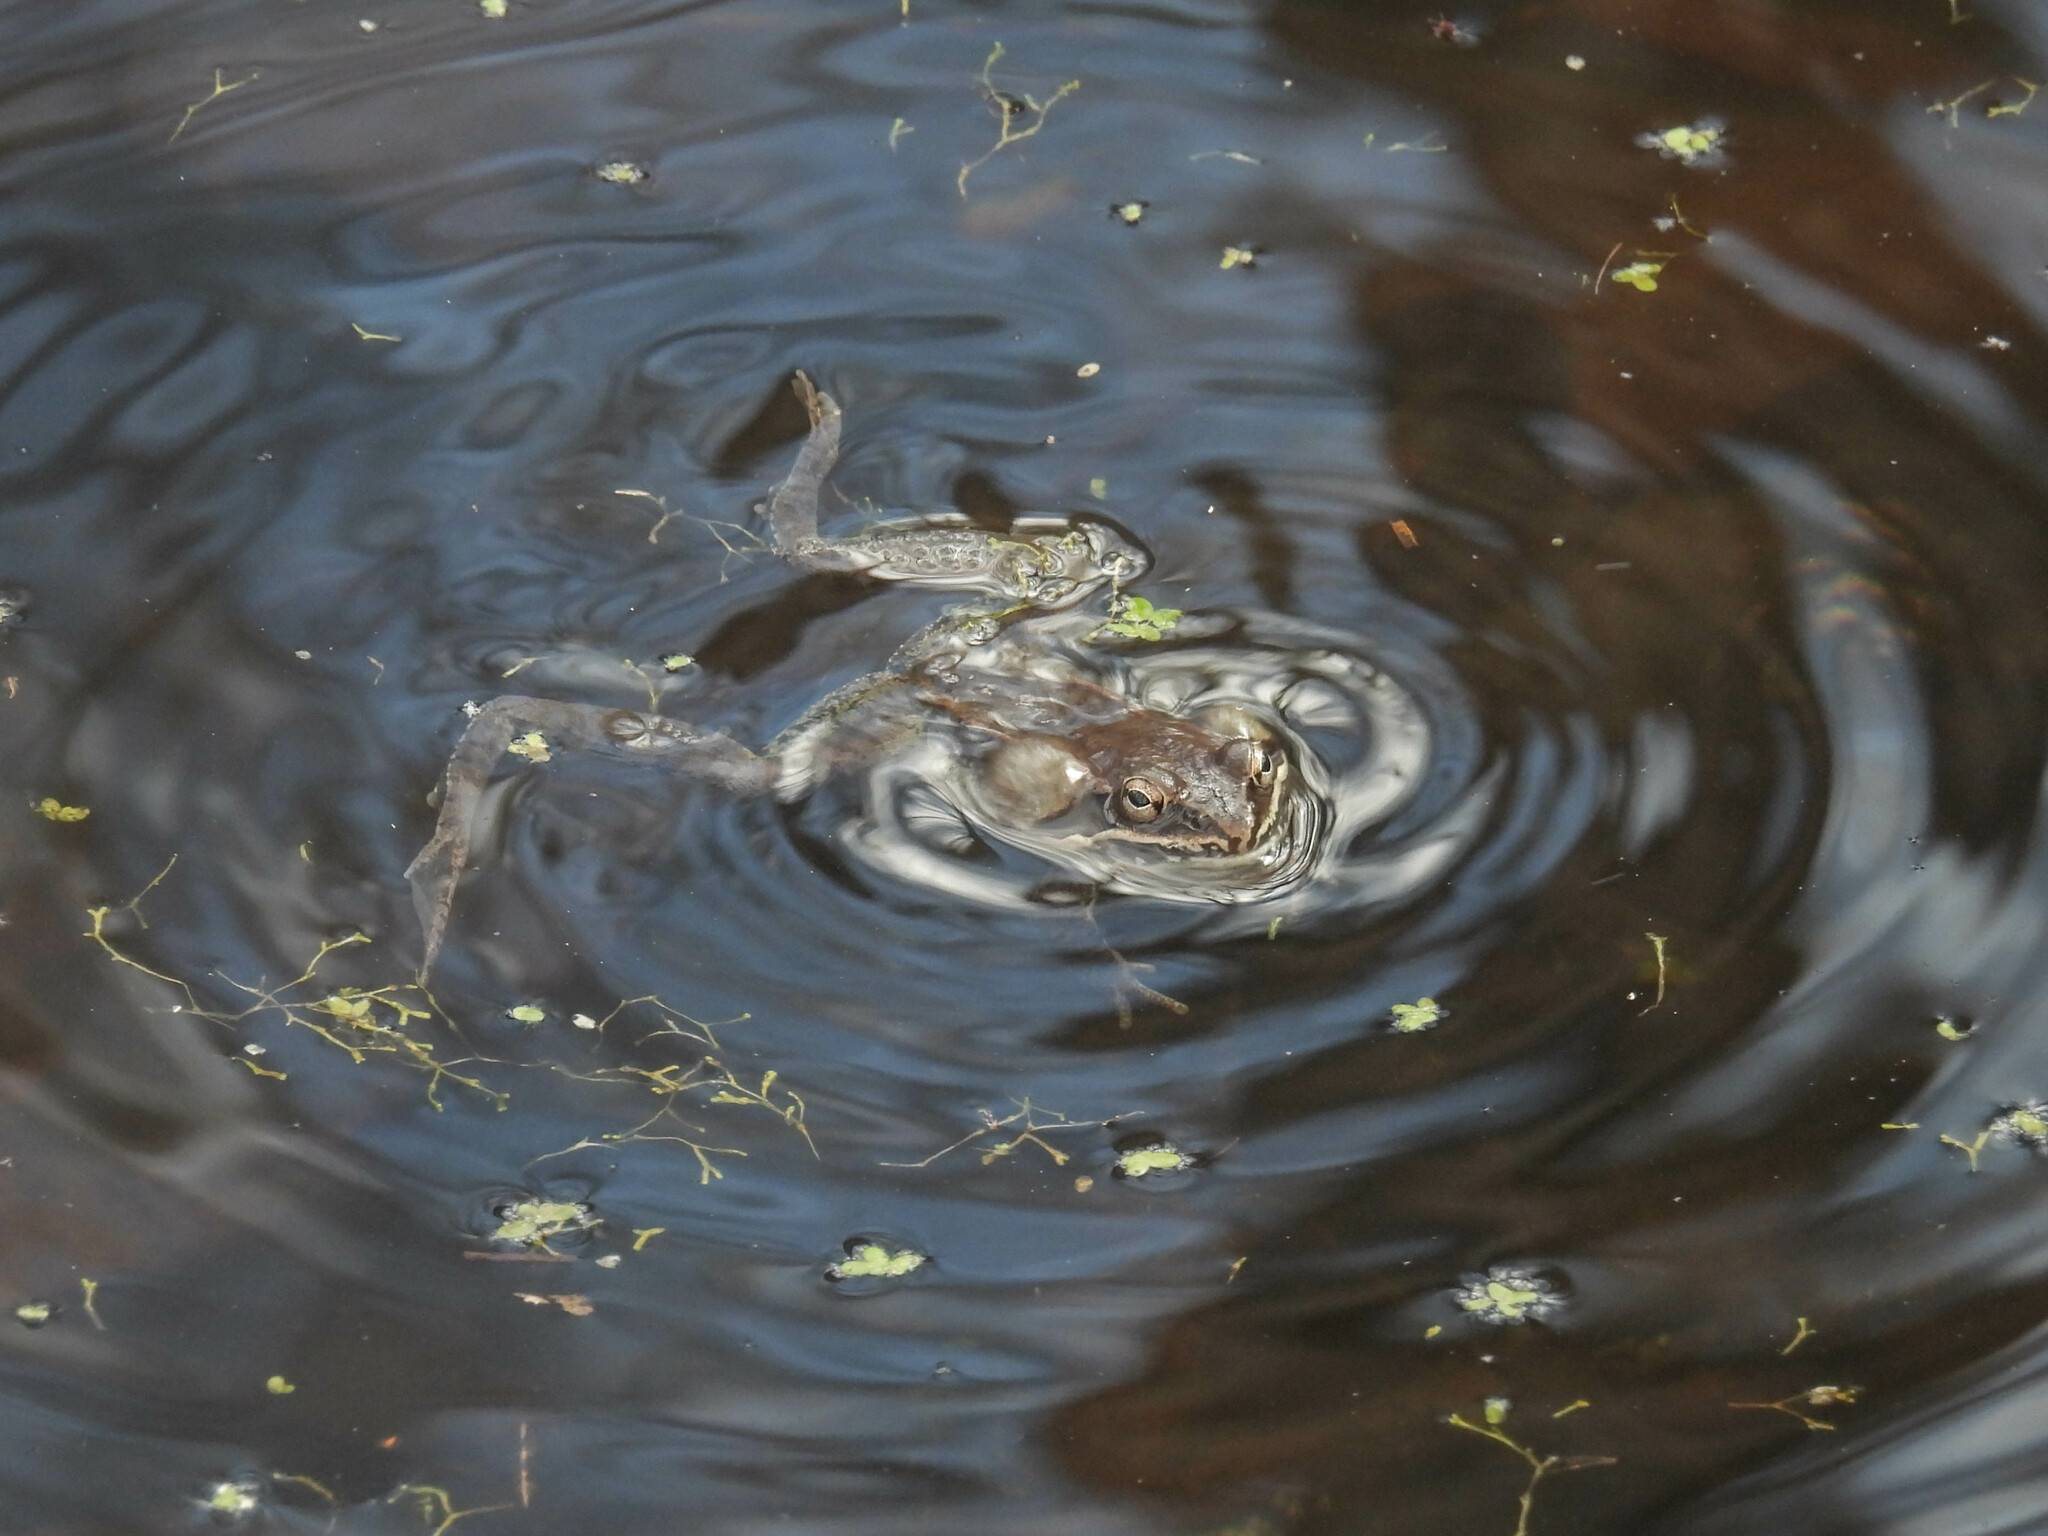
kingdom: Animalia
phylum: Chordata
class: Amphibia
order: Anura
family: Ranidae
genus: Lithobates
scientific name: Lithobates sylvaticus
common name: Wood frog
